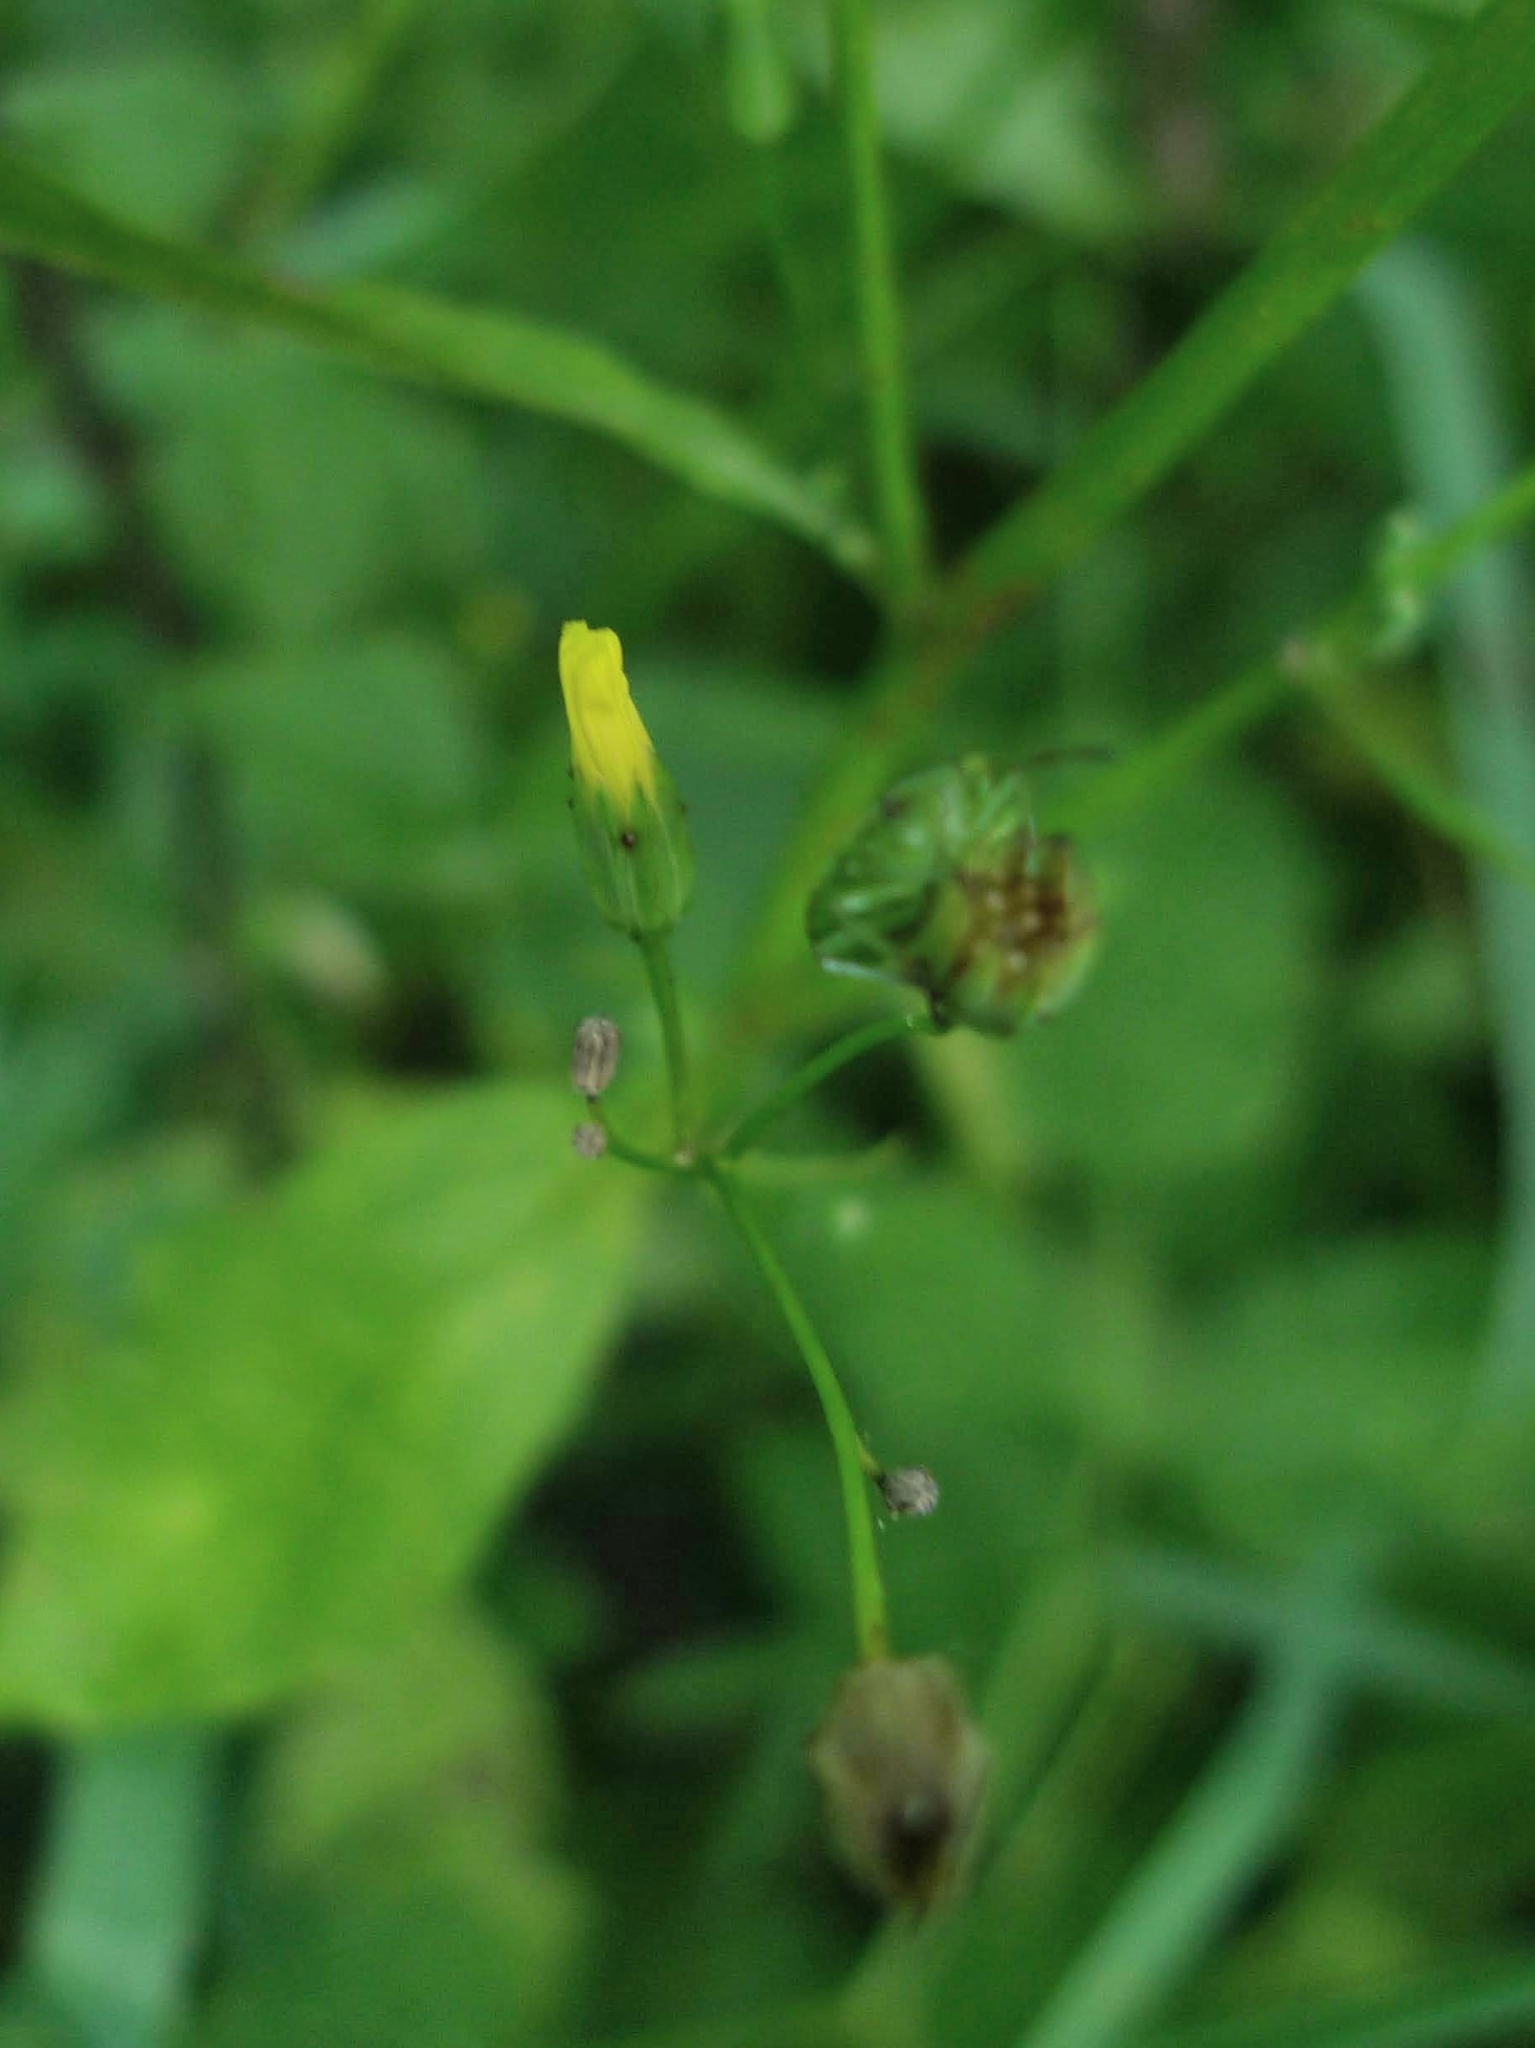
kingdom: Plantae
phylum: Tracheophyta
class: Magnoliopsida
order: Asterales
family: Asteraceae
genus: Lapsana
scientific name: Lapsana communis
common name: Nipplewort
